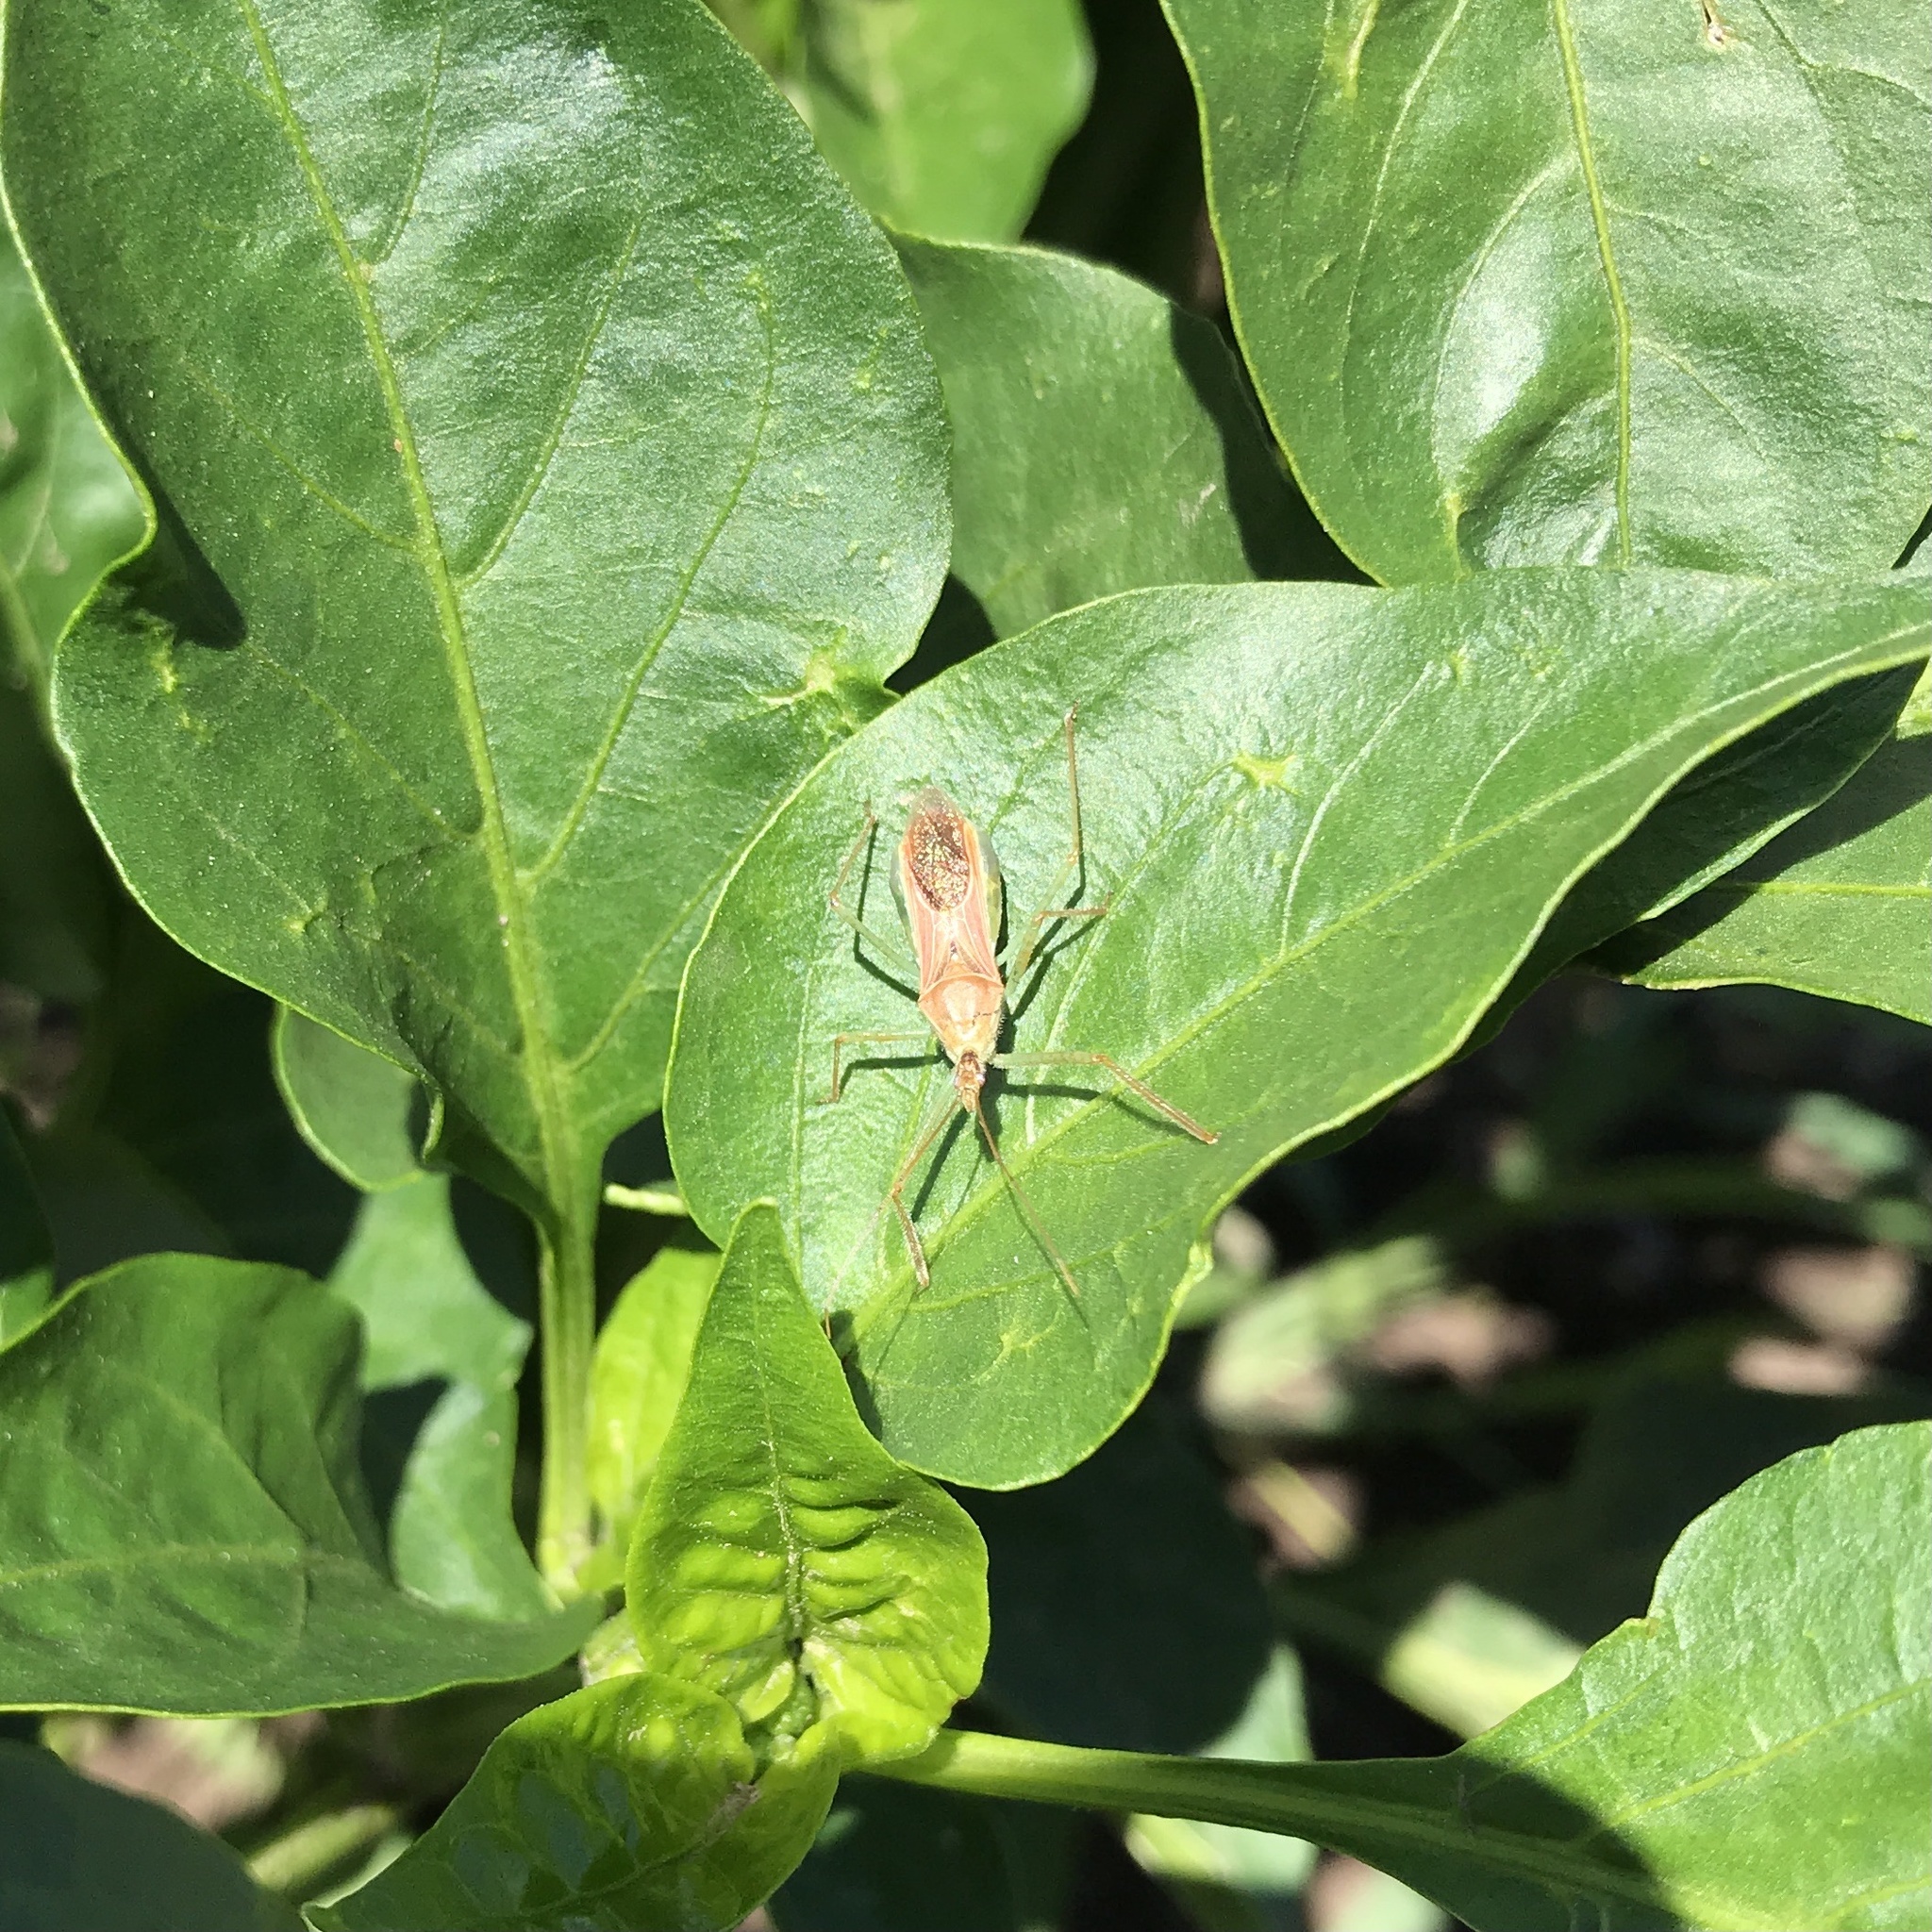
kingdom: Animalia
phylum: Arthropoda
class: Insecta
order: Hemiptera
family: Reduviidae
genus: Zelus
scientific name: Zelus renardii
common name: Assassin bug
